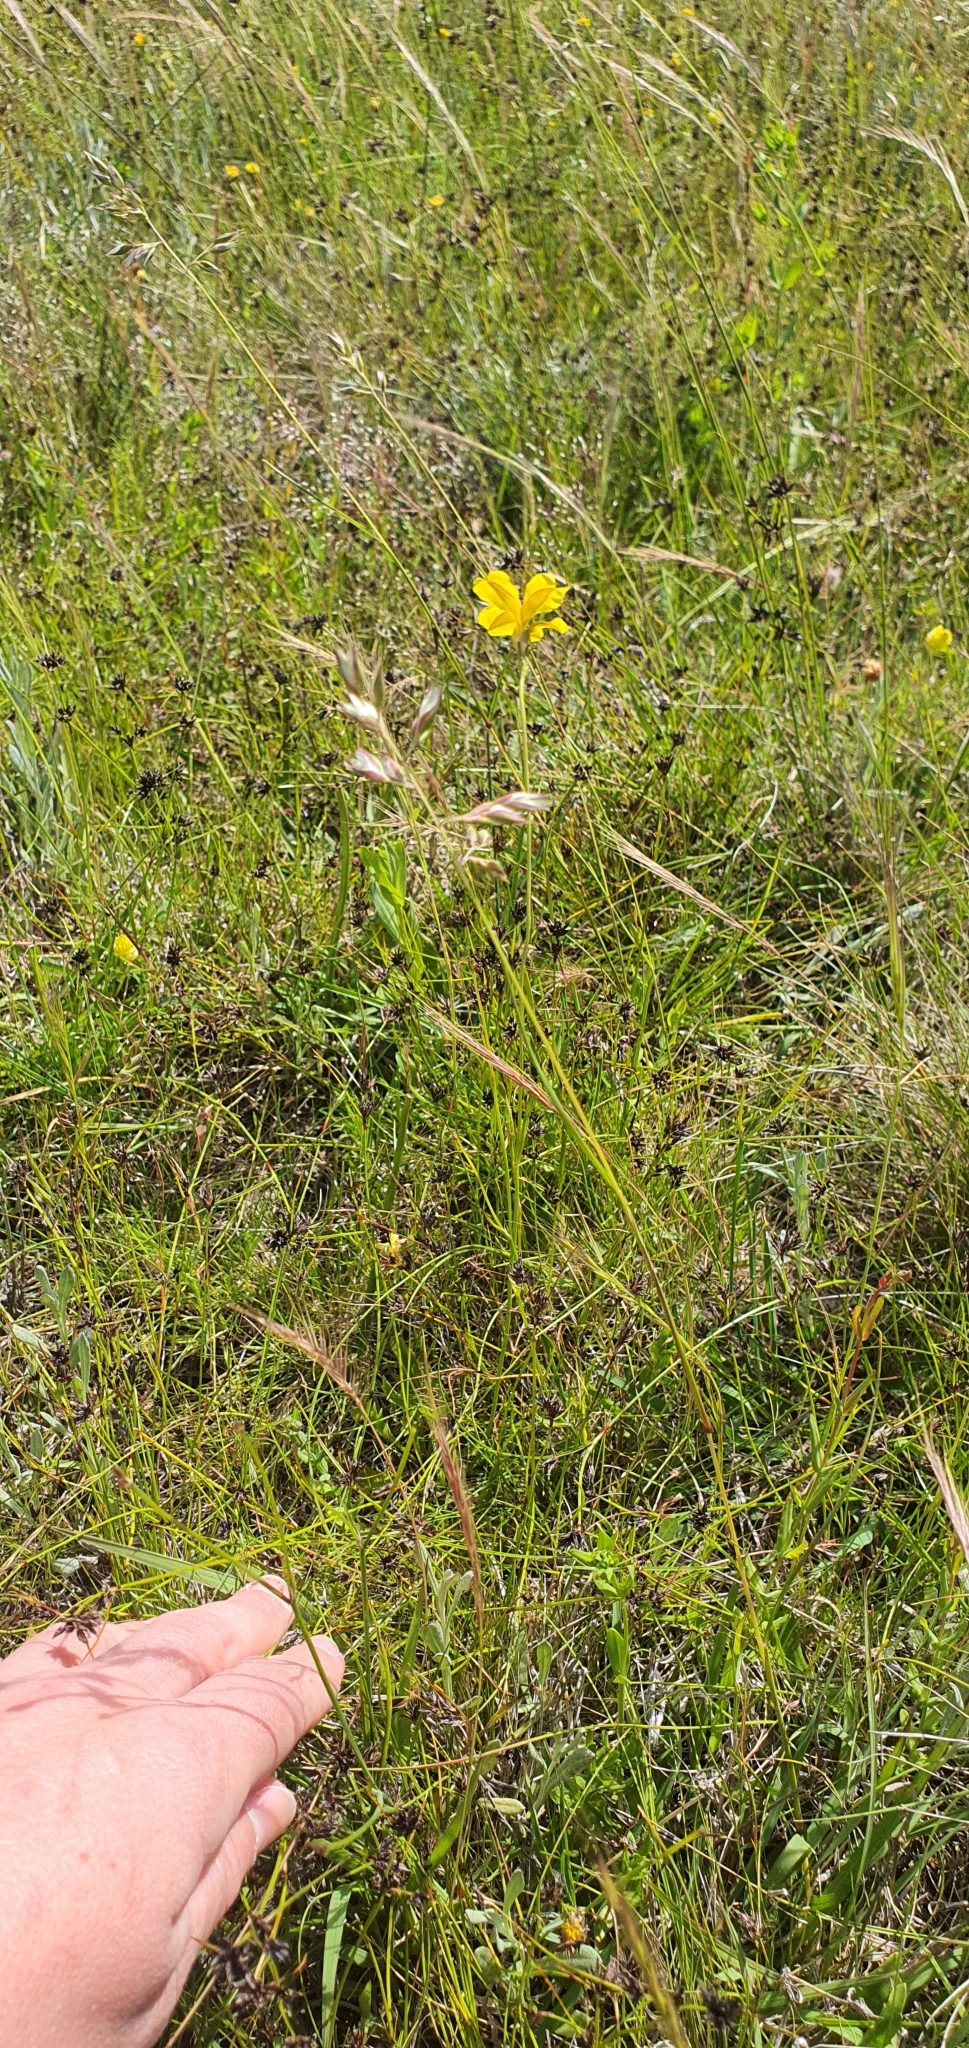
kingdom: Plantae
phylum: Tracheophyta
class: Magnoliopsida
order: Asterales
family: Goodeniaceae
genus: Goodenia
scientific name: Goodenia pinnatifida
